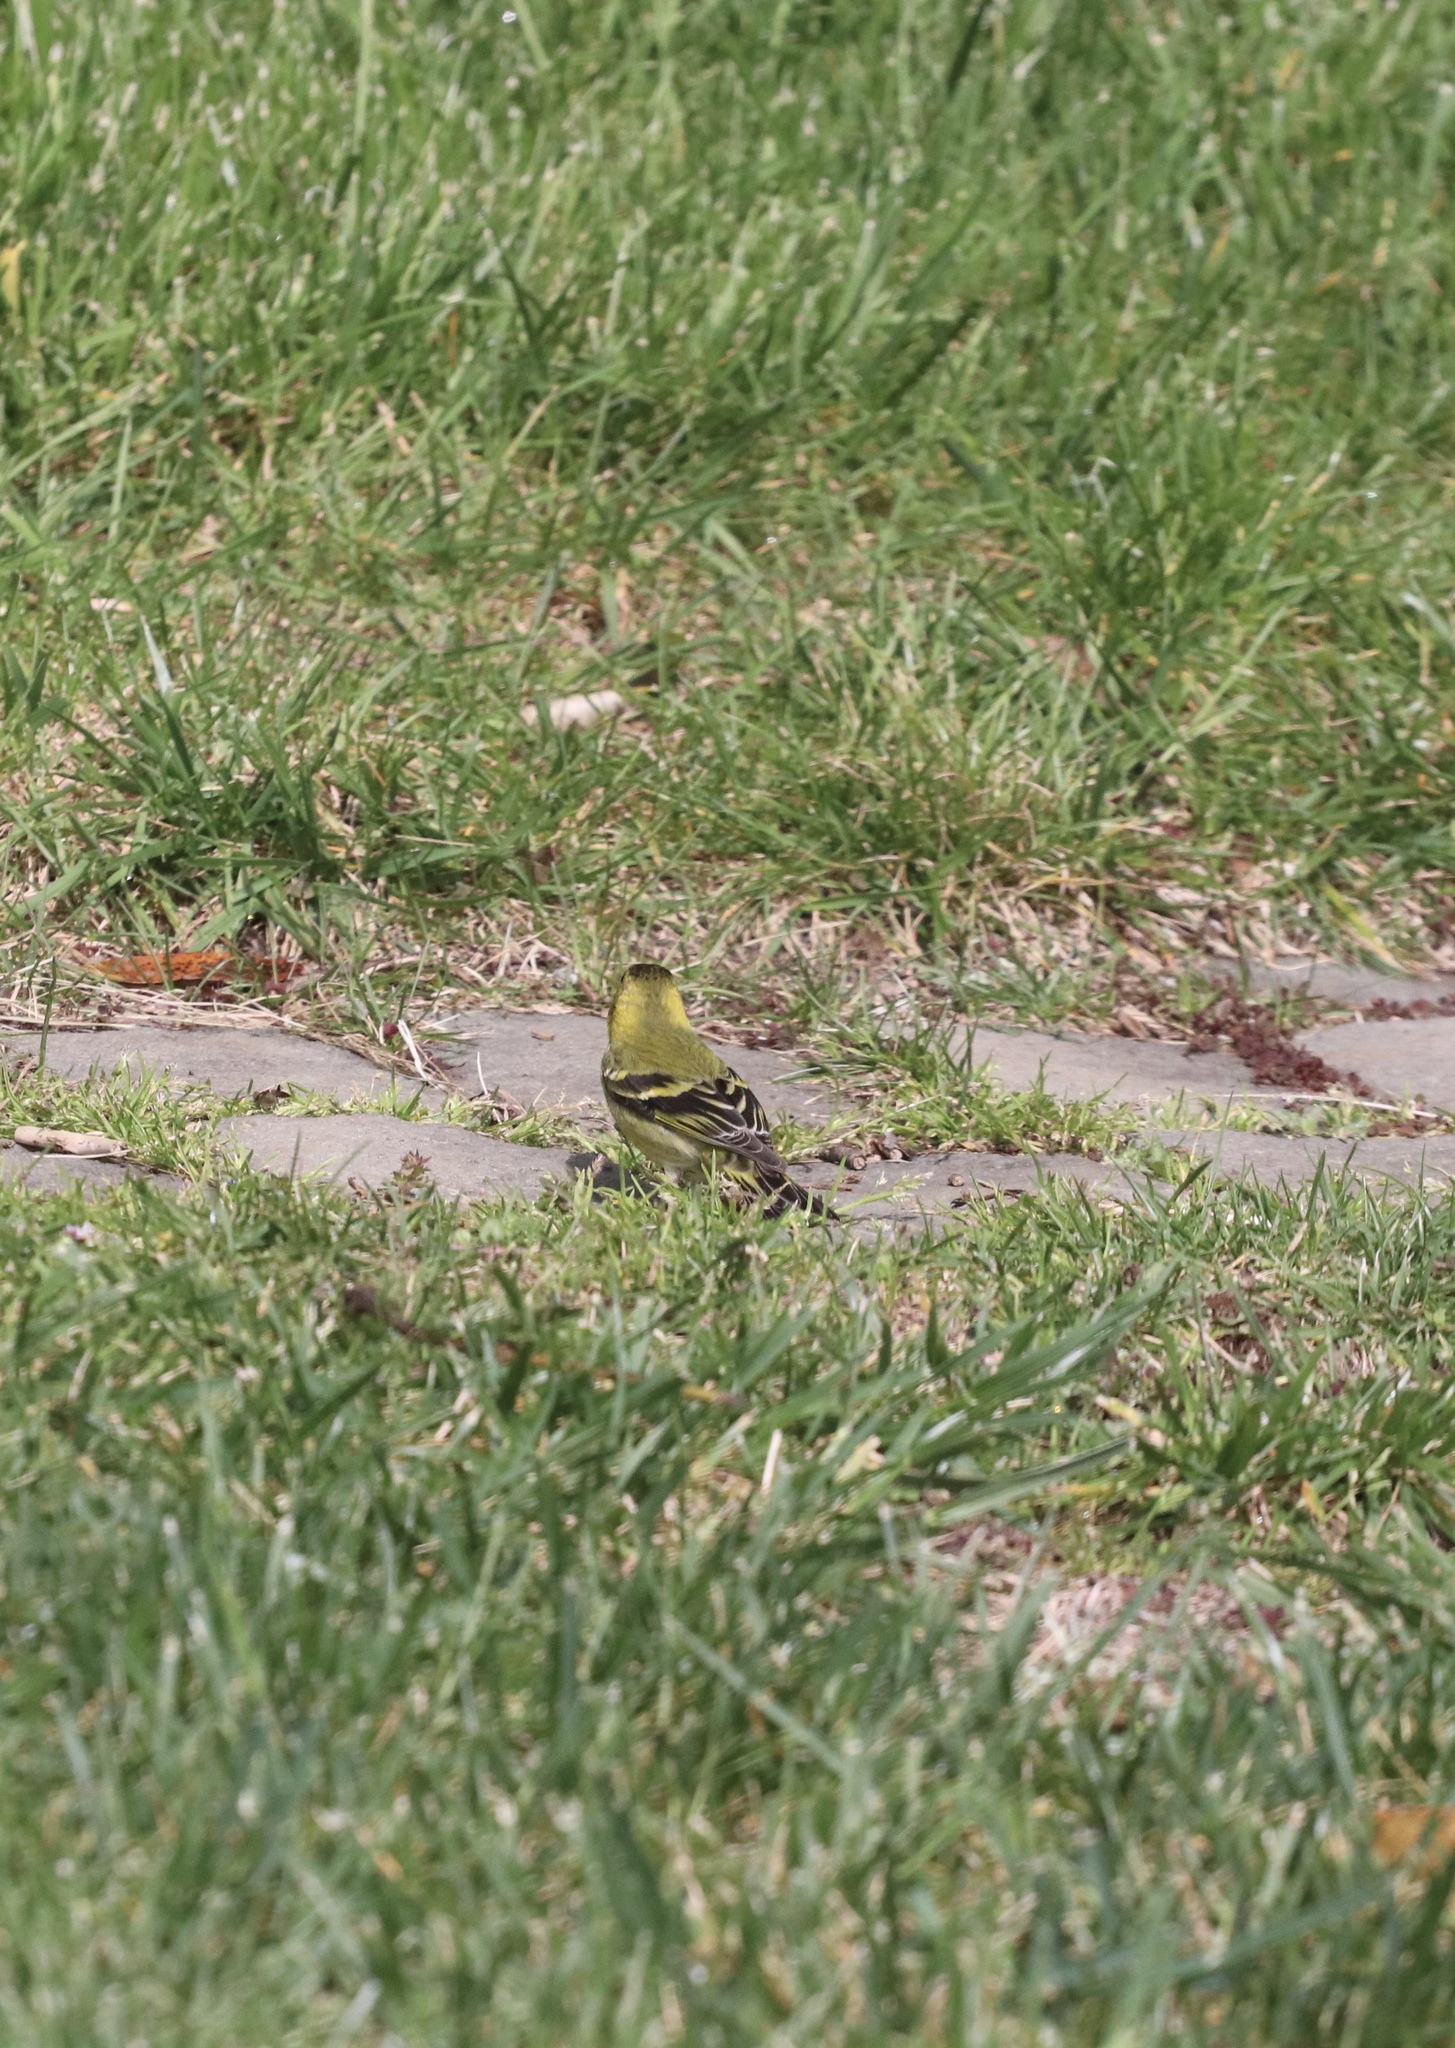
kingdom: Animalia
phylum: Chordata
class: Aves
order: Passeriformes
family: Fringillidae
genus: Spinus
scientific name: Spinus barbatus
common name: Black-chinned siskin
